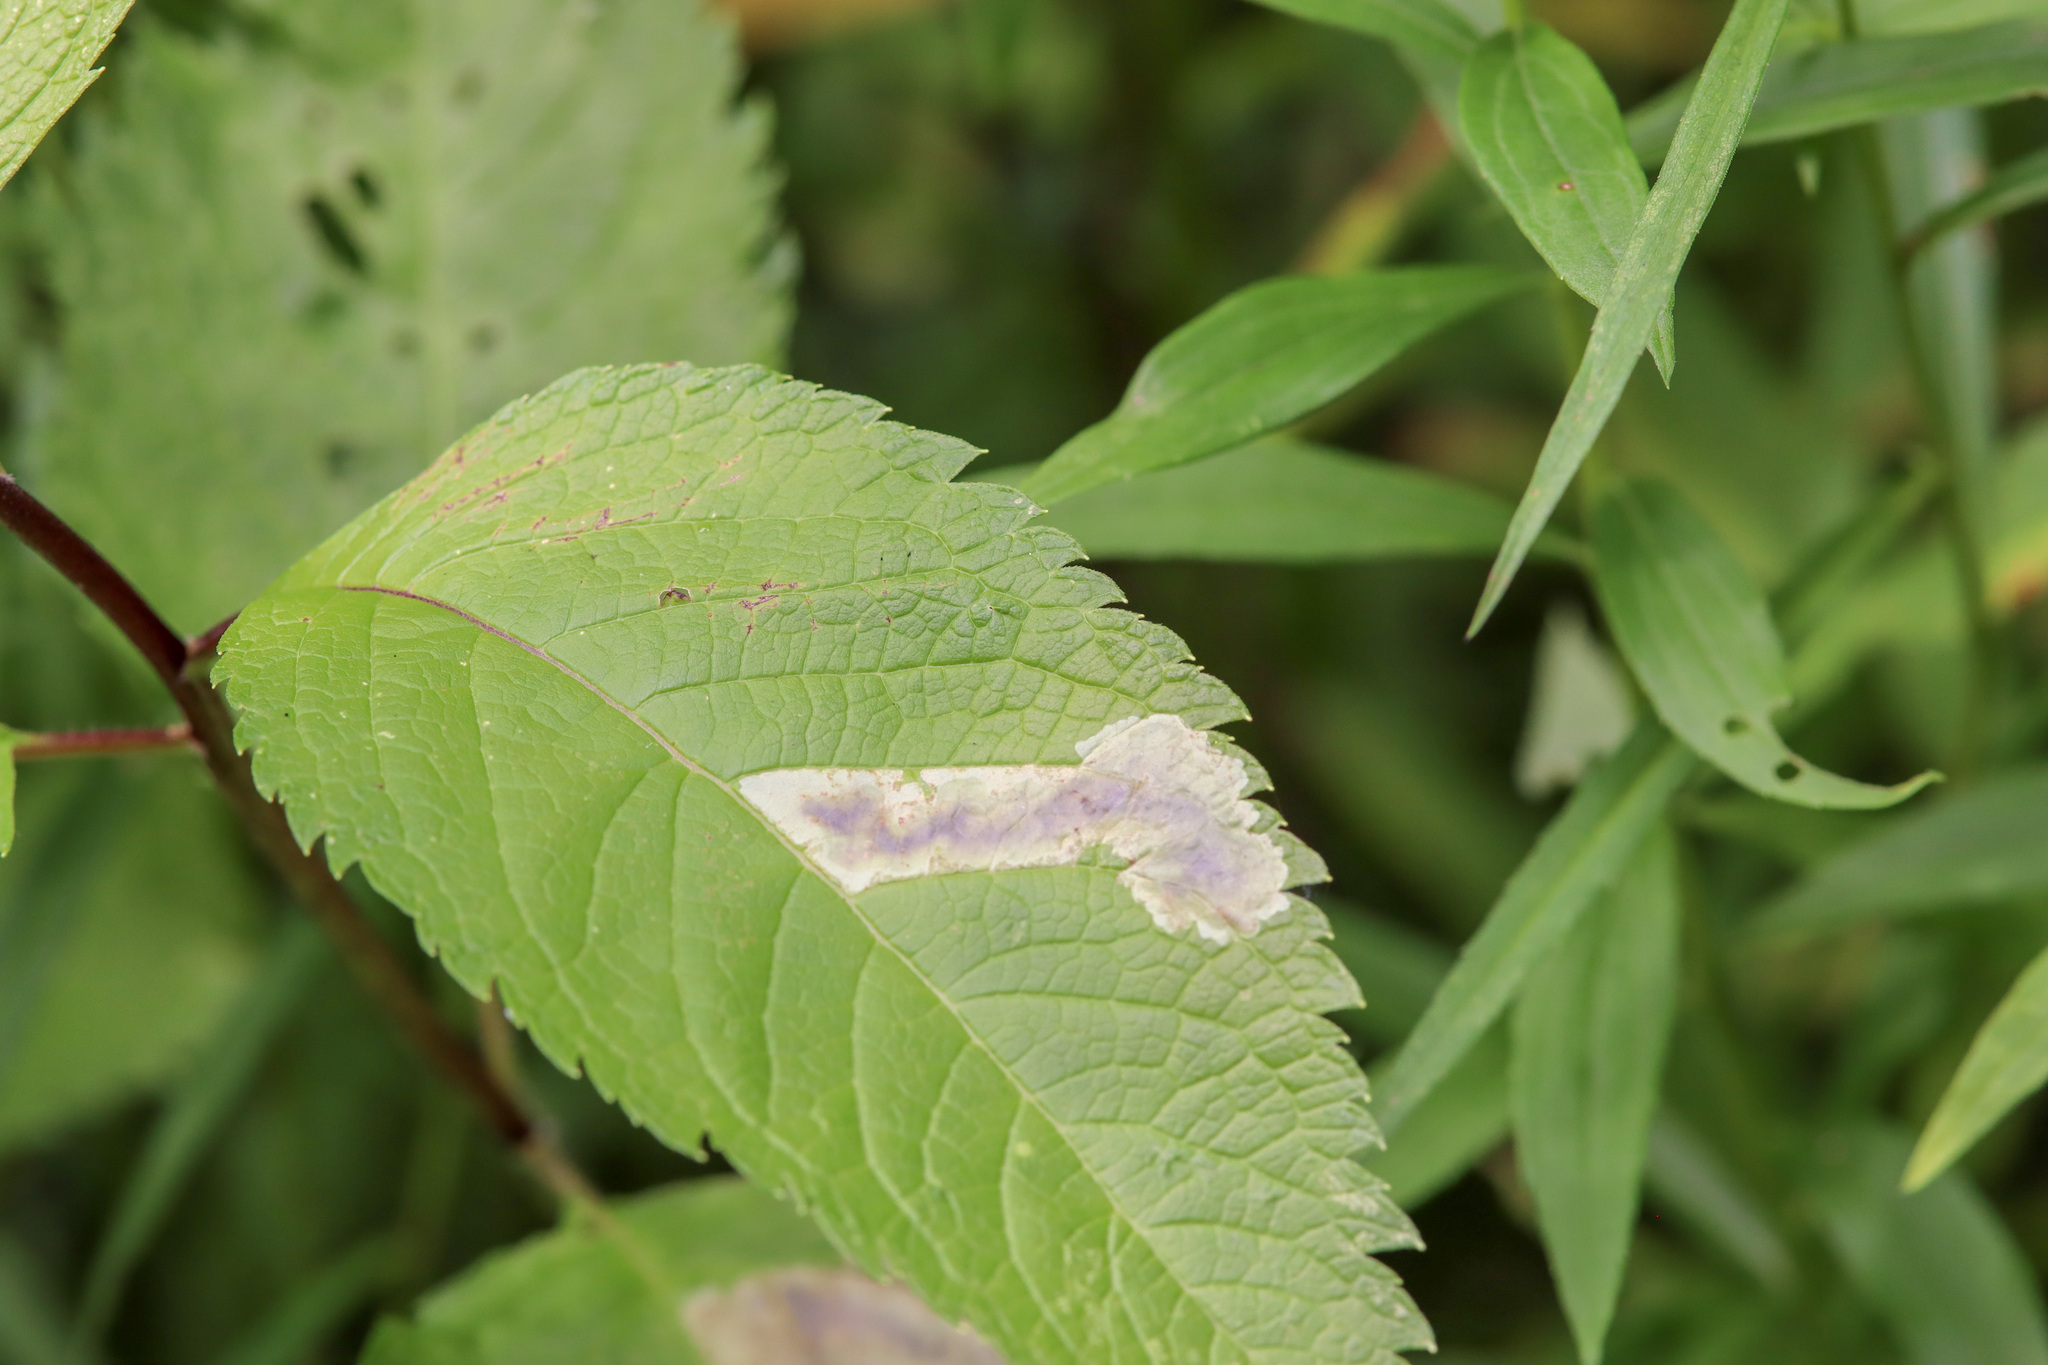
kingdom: Animalia
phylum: Arthropoda
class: Insecta
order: Diptera
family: Agromyzidae
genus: Calycomyza
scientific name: Calycomyza flavinotum
